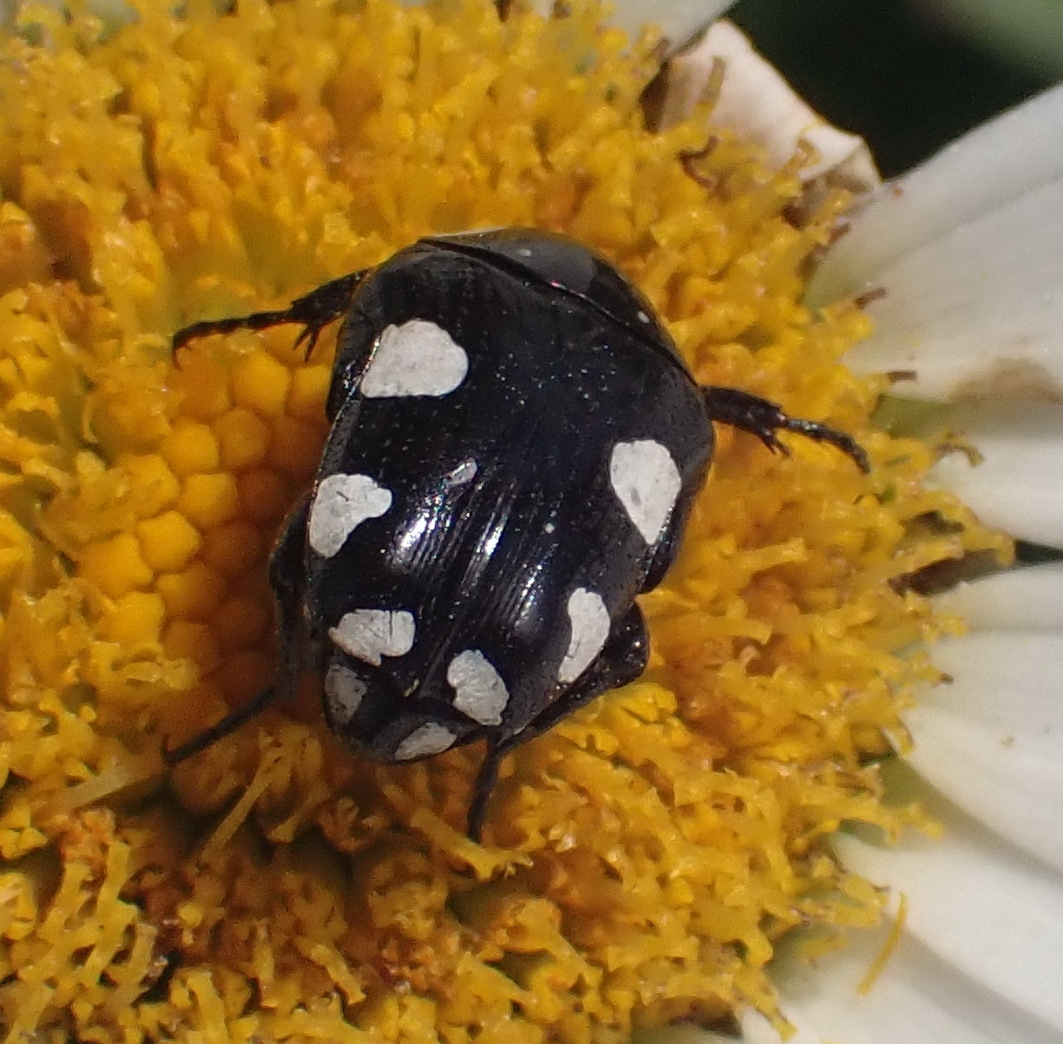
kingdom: Animalia
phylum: Arthropoda
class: Insecta
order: Coleoptera
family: Scarabaeidae
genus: Mausoleopsis
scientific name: Mausoleopsis amabilis
